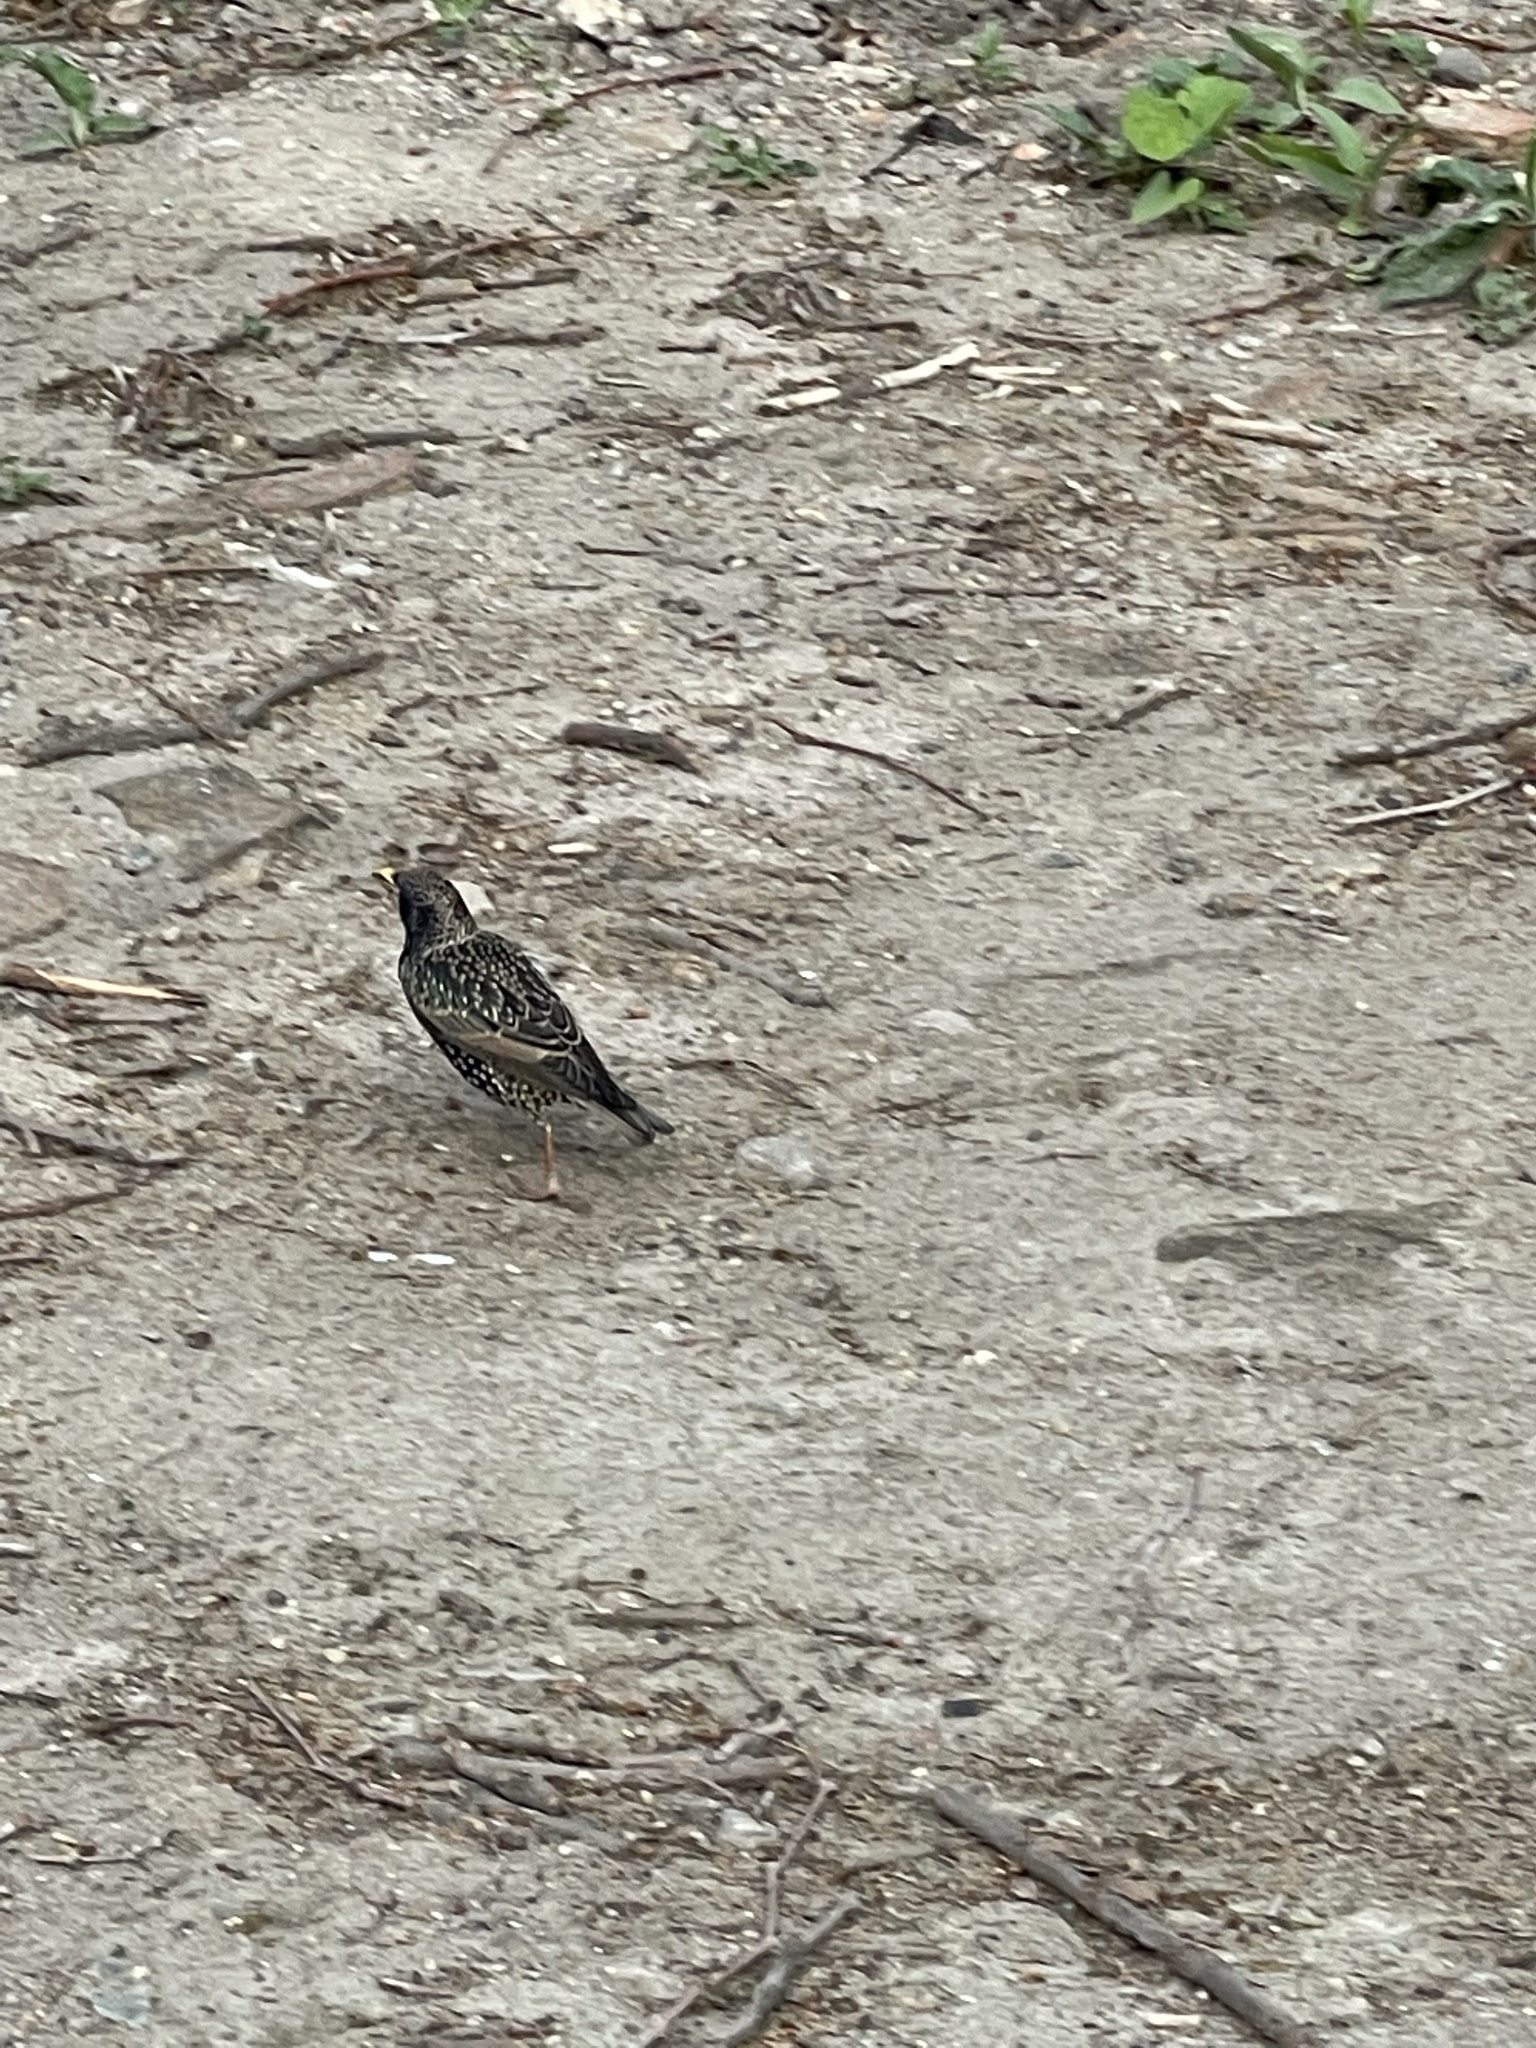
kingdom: Animalia
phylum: Chordata
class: Aves
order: Passeriformes
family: Sturnidae
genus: Sturnus
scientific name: Sturnus vulgaris
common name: Common starling
